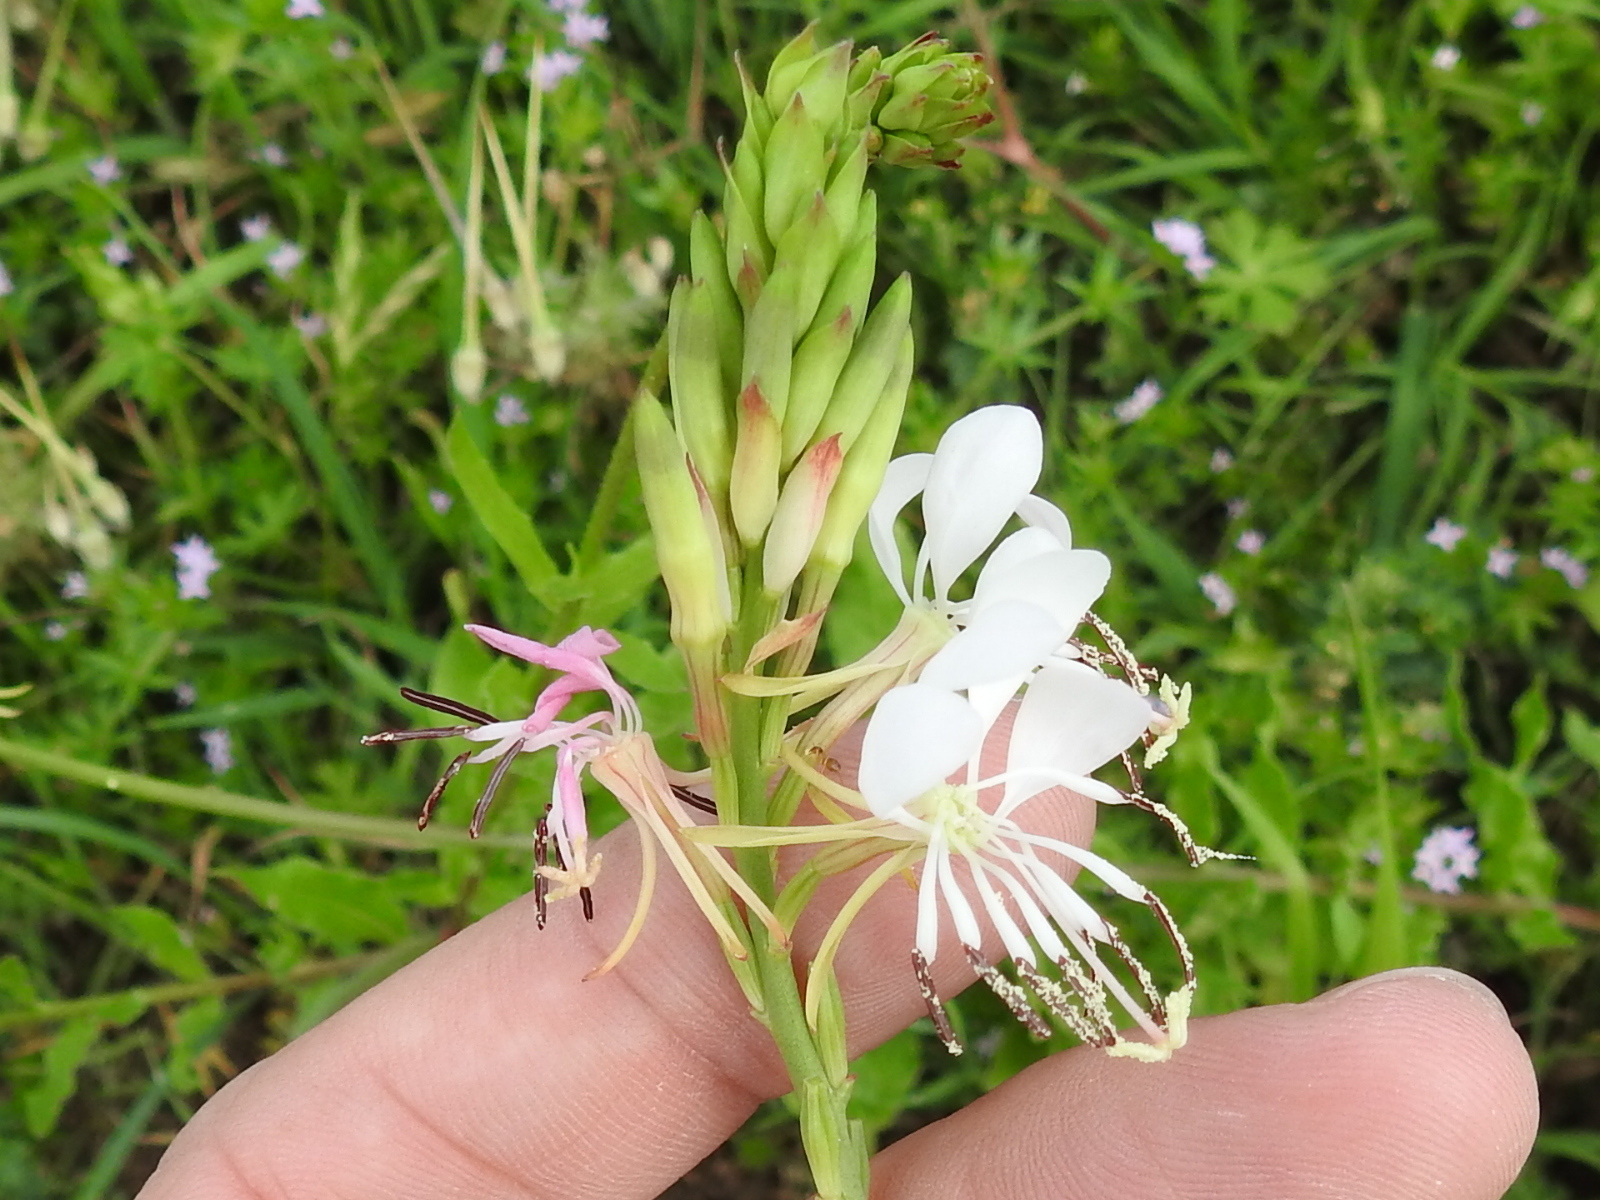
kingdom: Plantae
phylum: Tracheophyta
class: Magnoliopsida
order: Myrtales
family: Onagraceae
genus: Oenothera
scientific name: Oenothera suffulta
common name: Kisses
